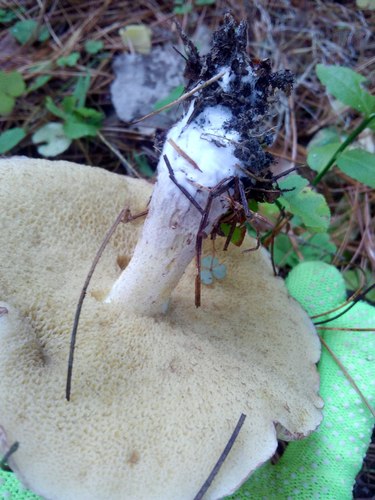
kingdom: Fungi
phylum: Basidiomycota
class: Agaricomycetes
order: Boletales
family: Suillaceae
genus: Suillus
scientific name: Suillus
